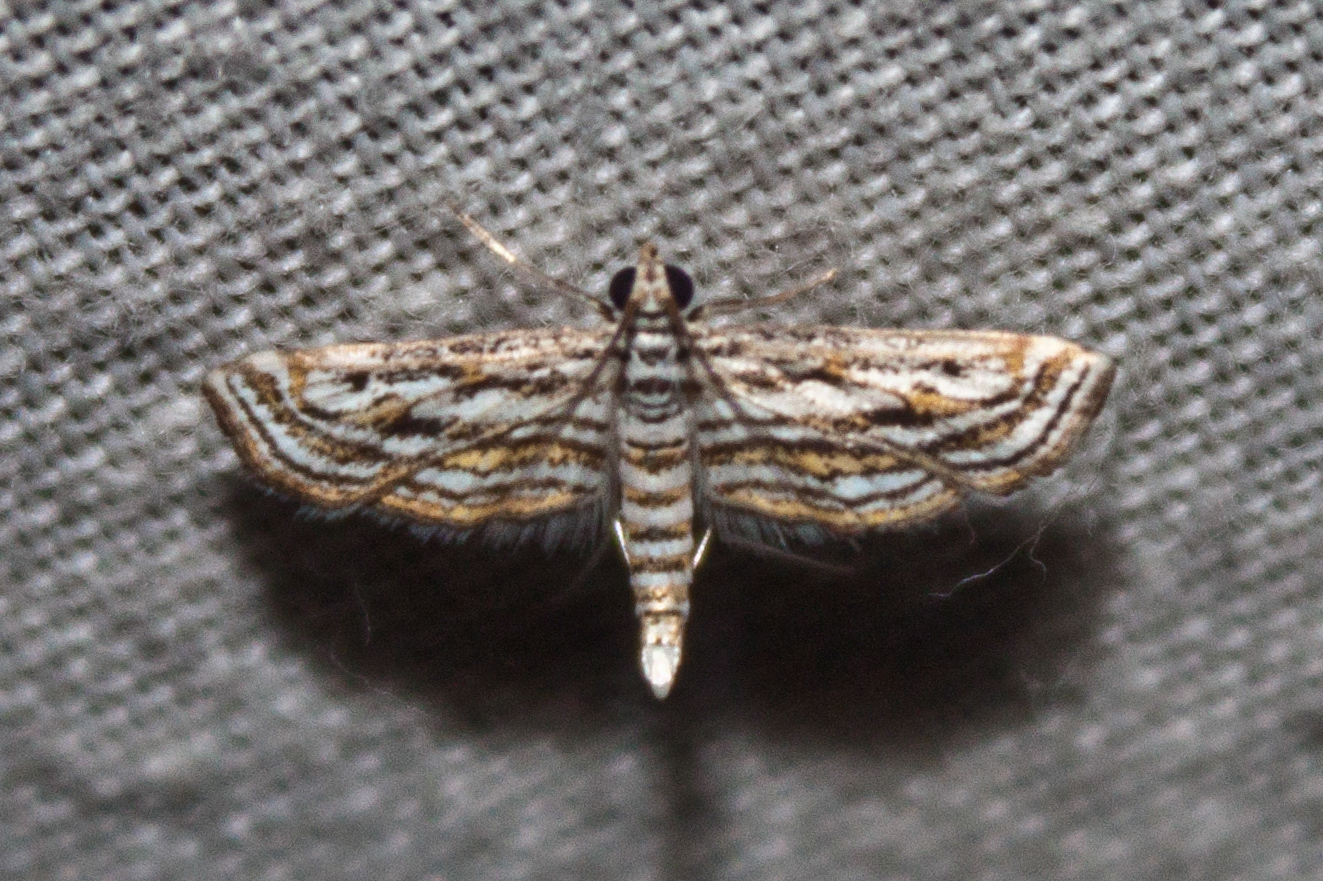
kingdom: Animalia
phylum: Arthropoda
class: Insecta
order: Lepidoptera
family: Crambidae
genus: Parapoynx
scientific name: Parapoynx fluctuosalis
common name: Moth
